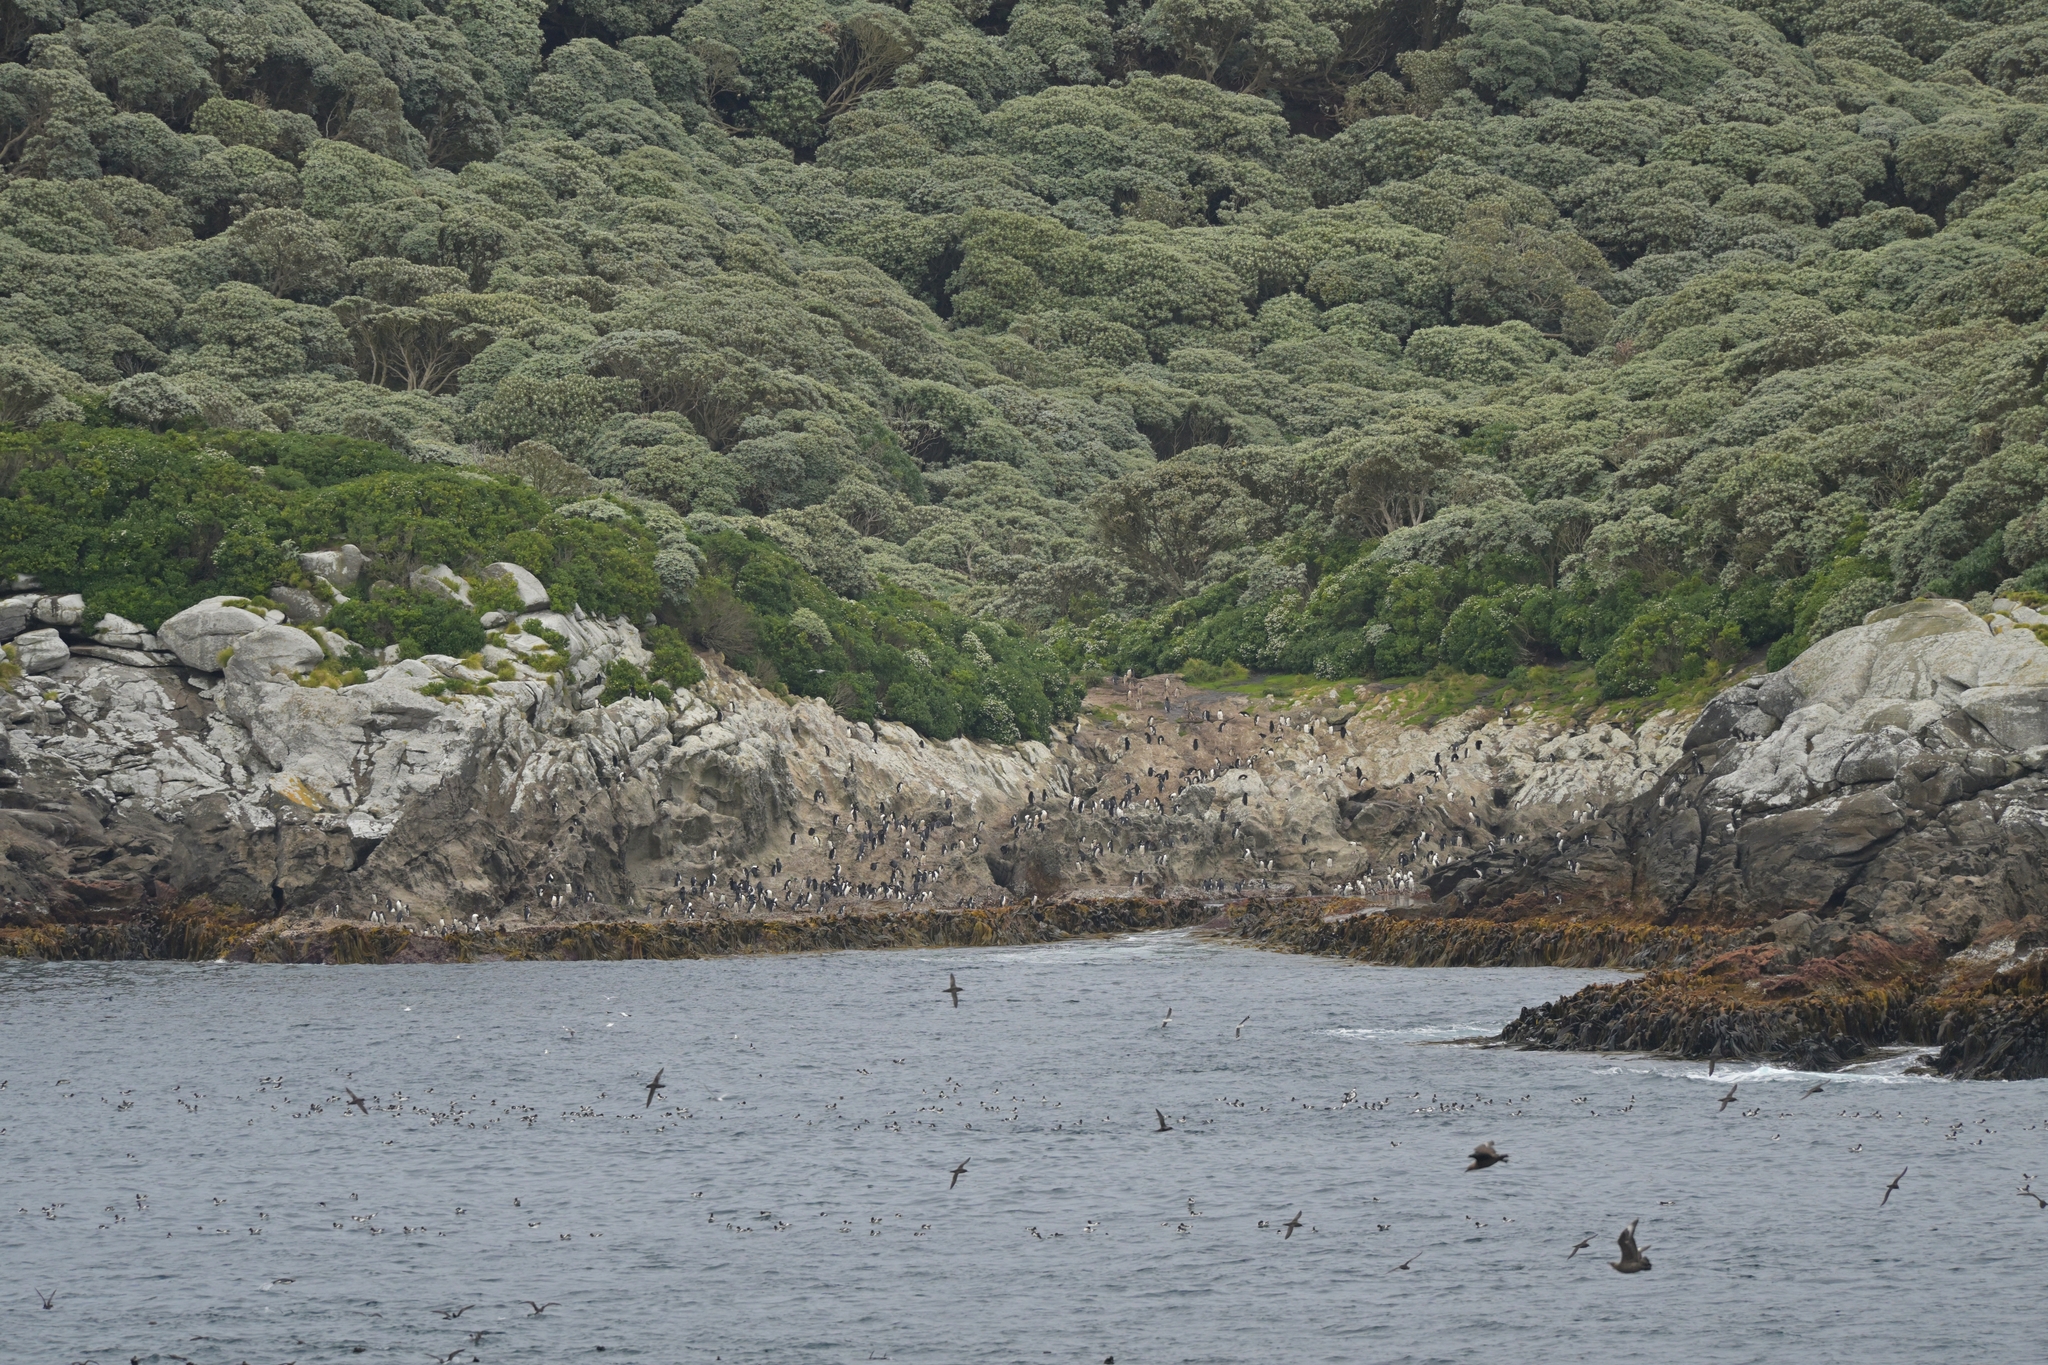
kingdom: Animalia
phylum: Chordata
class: Aves
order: Sphenisciformes
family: Spheniscidae
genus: Eudyptes
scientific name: Eudyptes robustus
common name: Snares penguin
